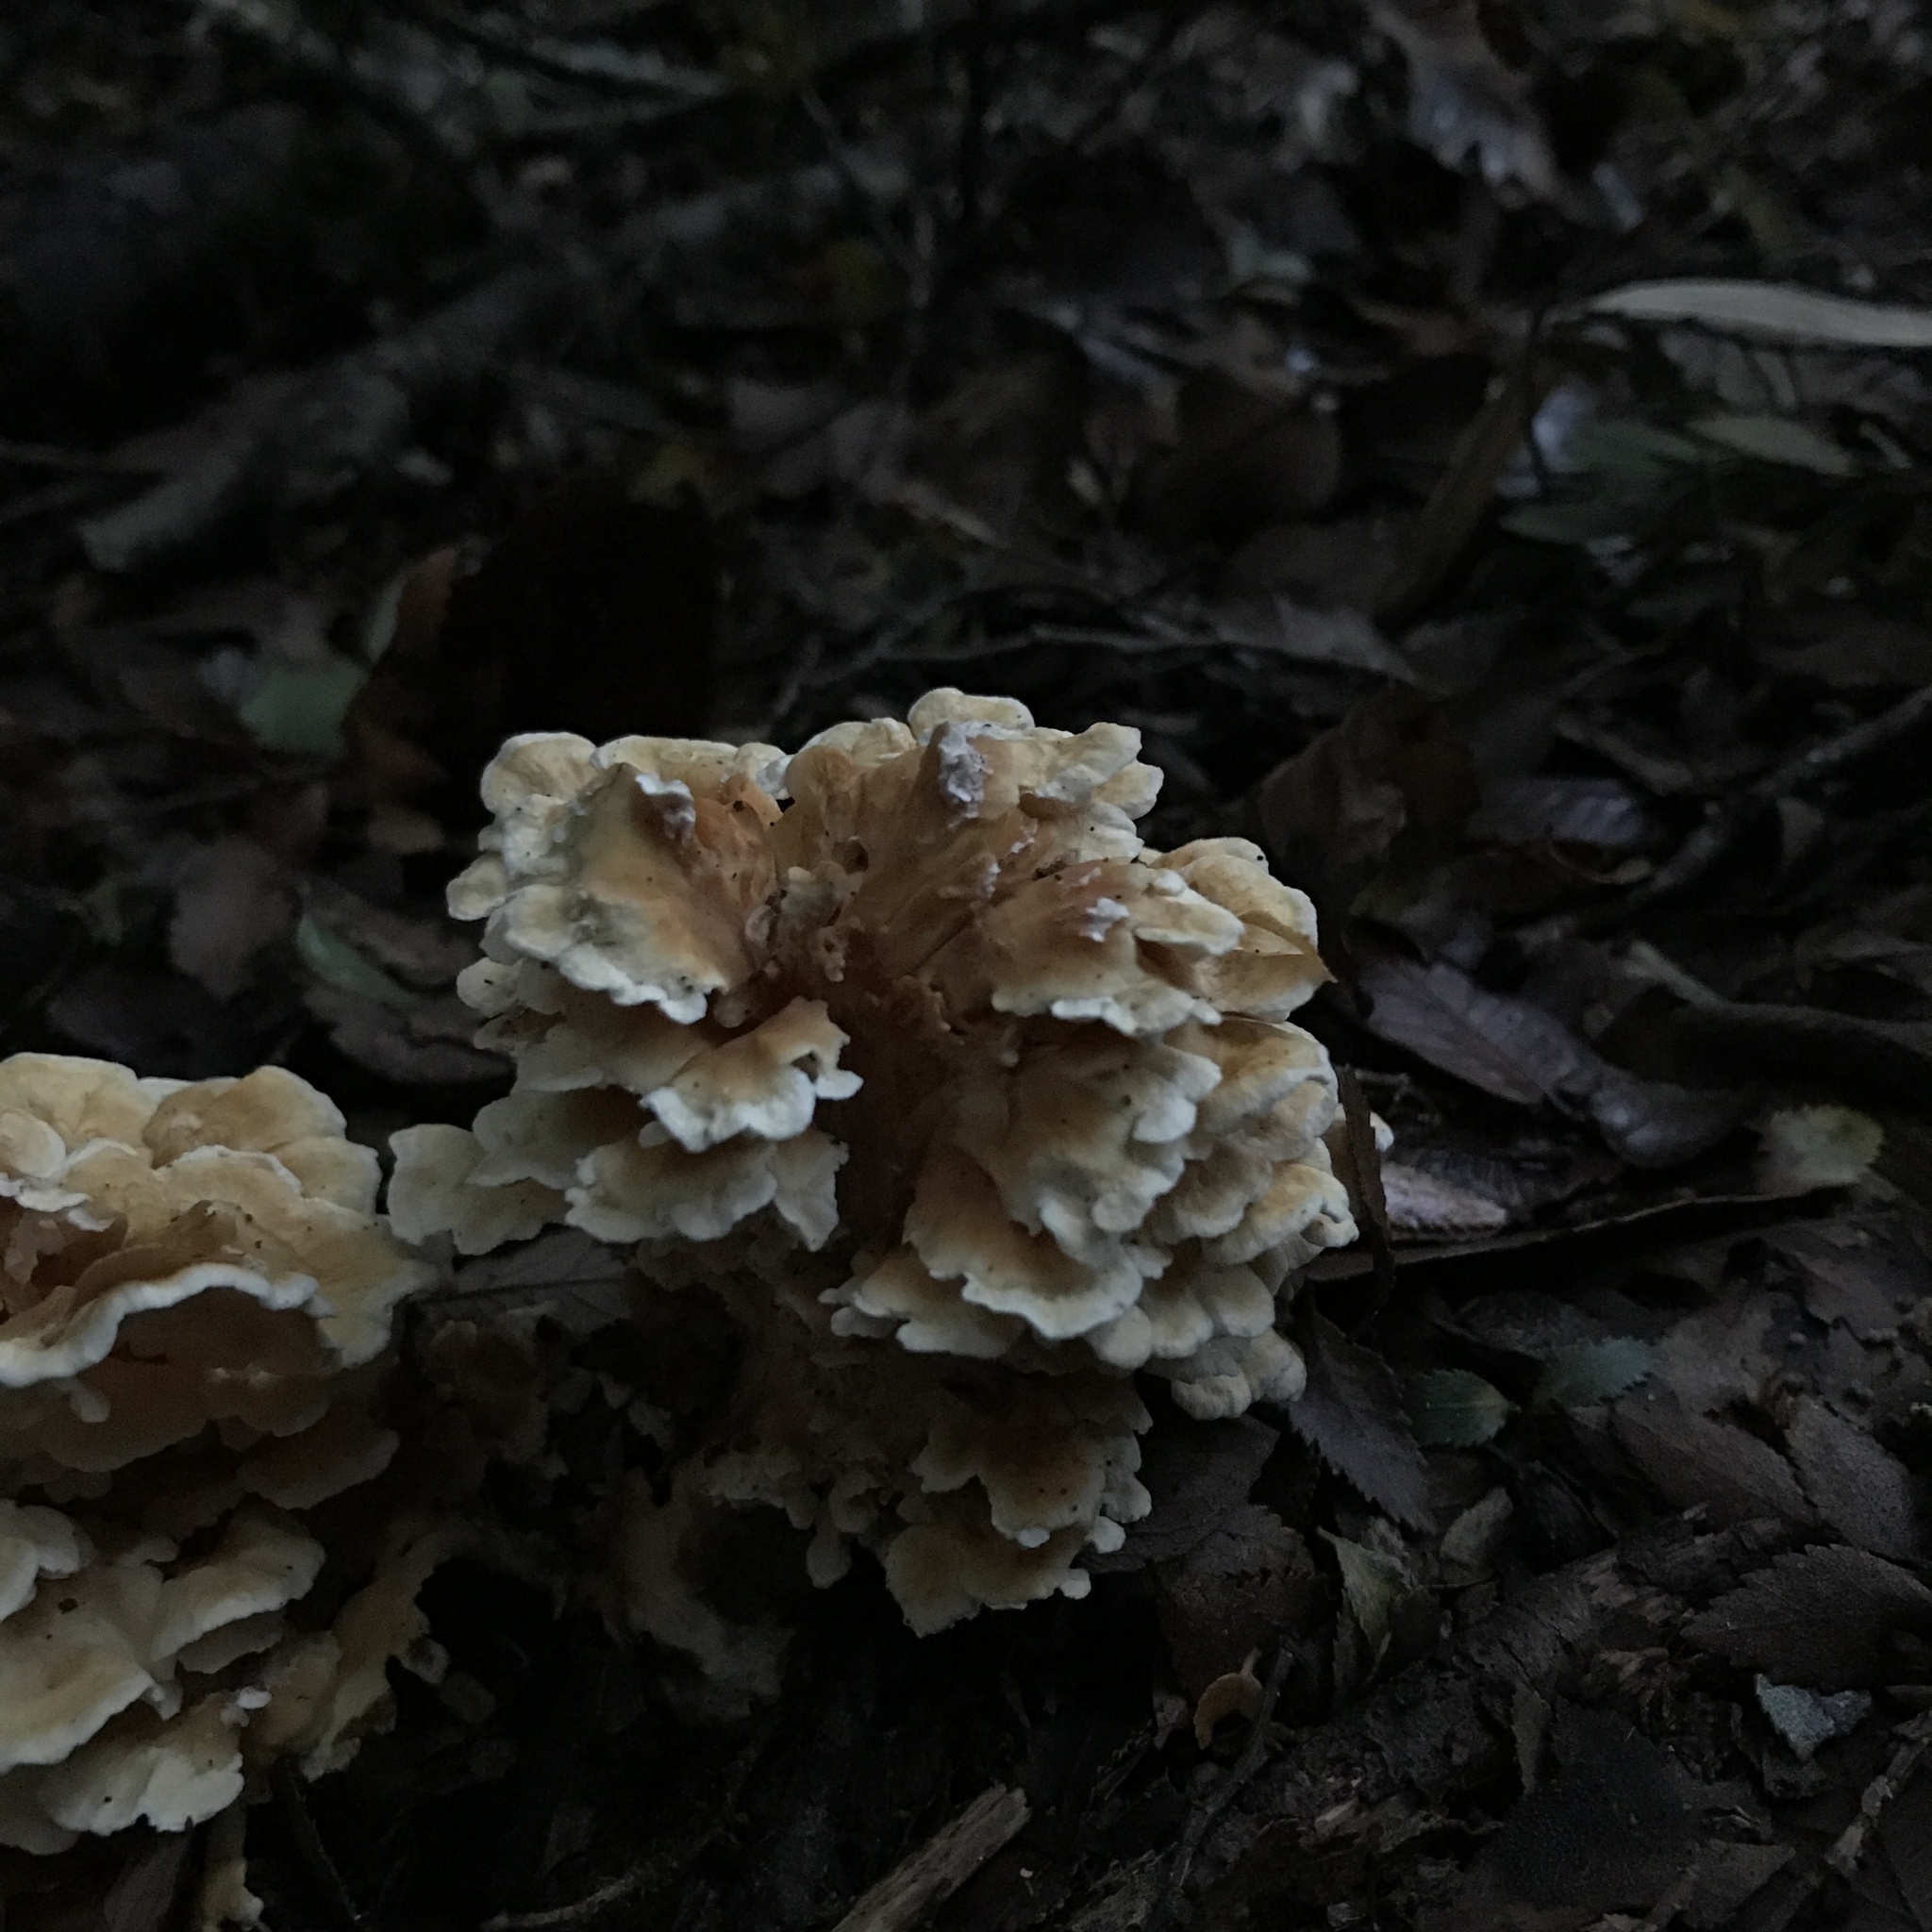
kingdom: Fungi
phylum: Basidiomycota
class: Agaricomycetes
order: Amylocorticiales
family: Amylocorticiaceae
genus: Podoserpula
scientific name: Podoserpula aliweni
